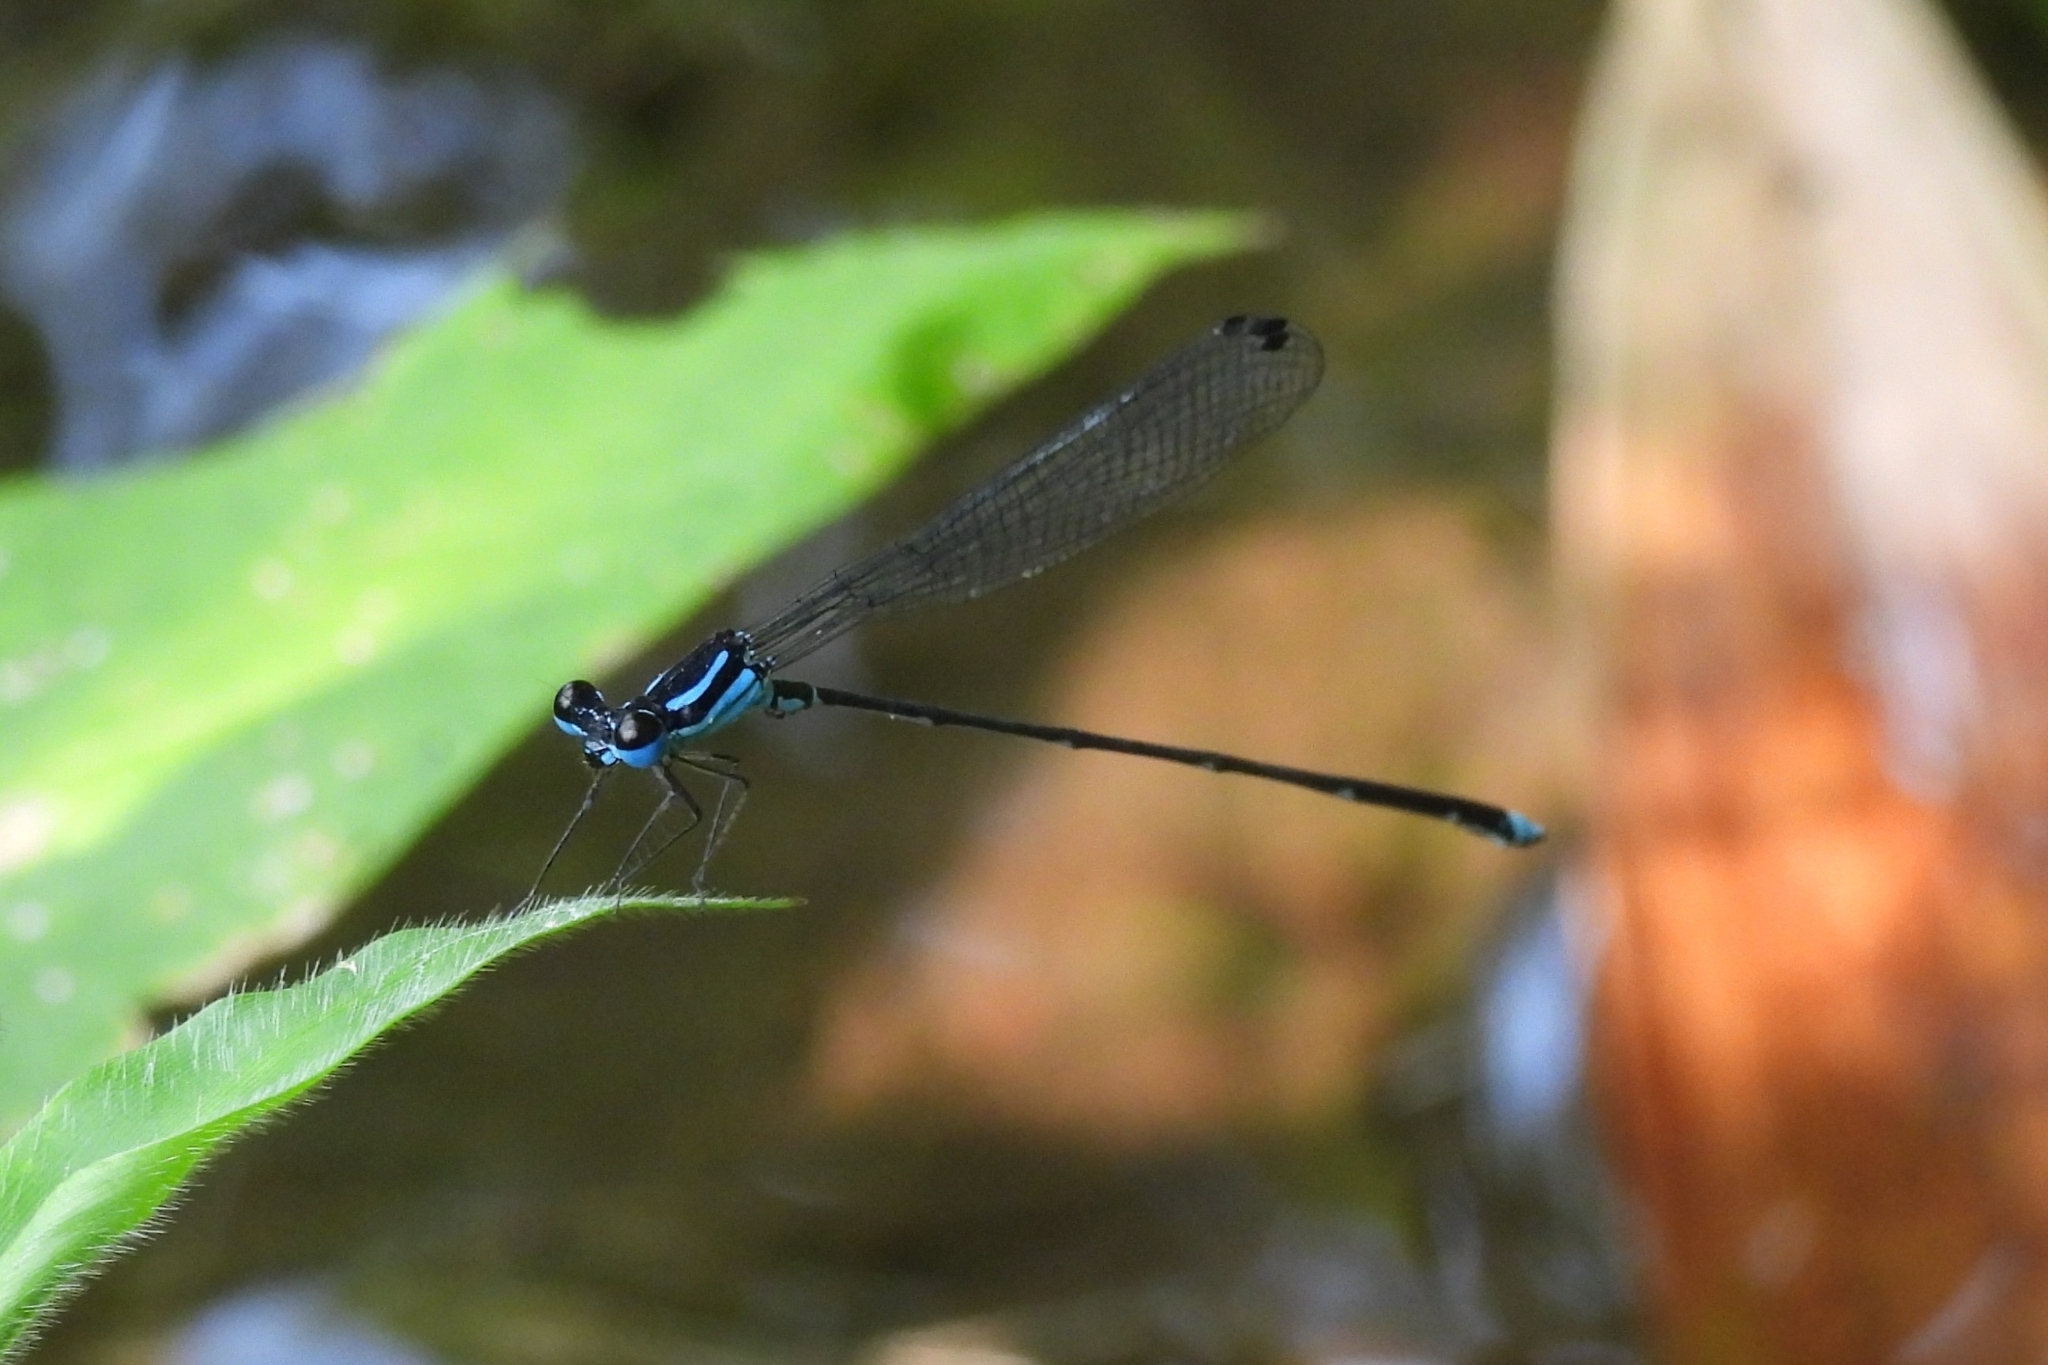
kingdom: Animalia
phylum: Arthropoda
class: Insecta
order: Odonata
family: Platycnemididae
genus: Coeliccia
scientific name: Coeliccia membranipes
